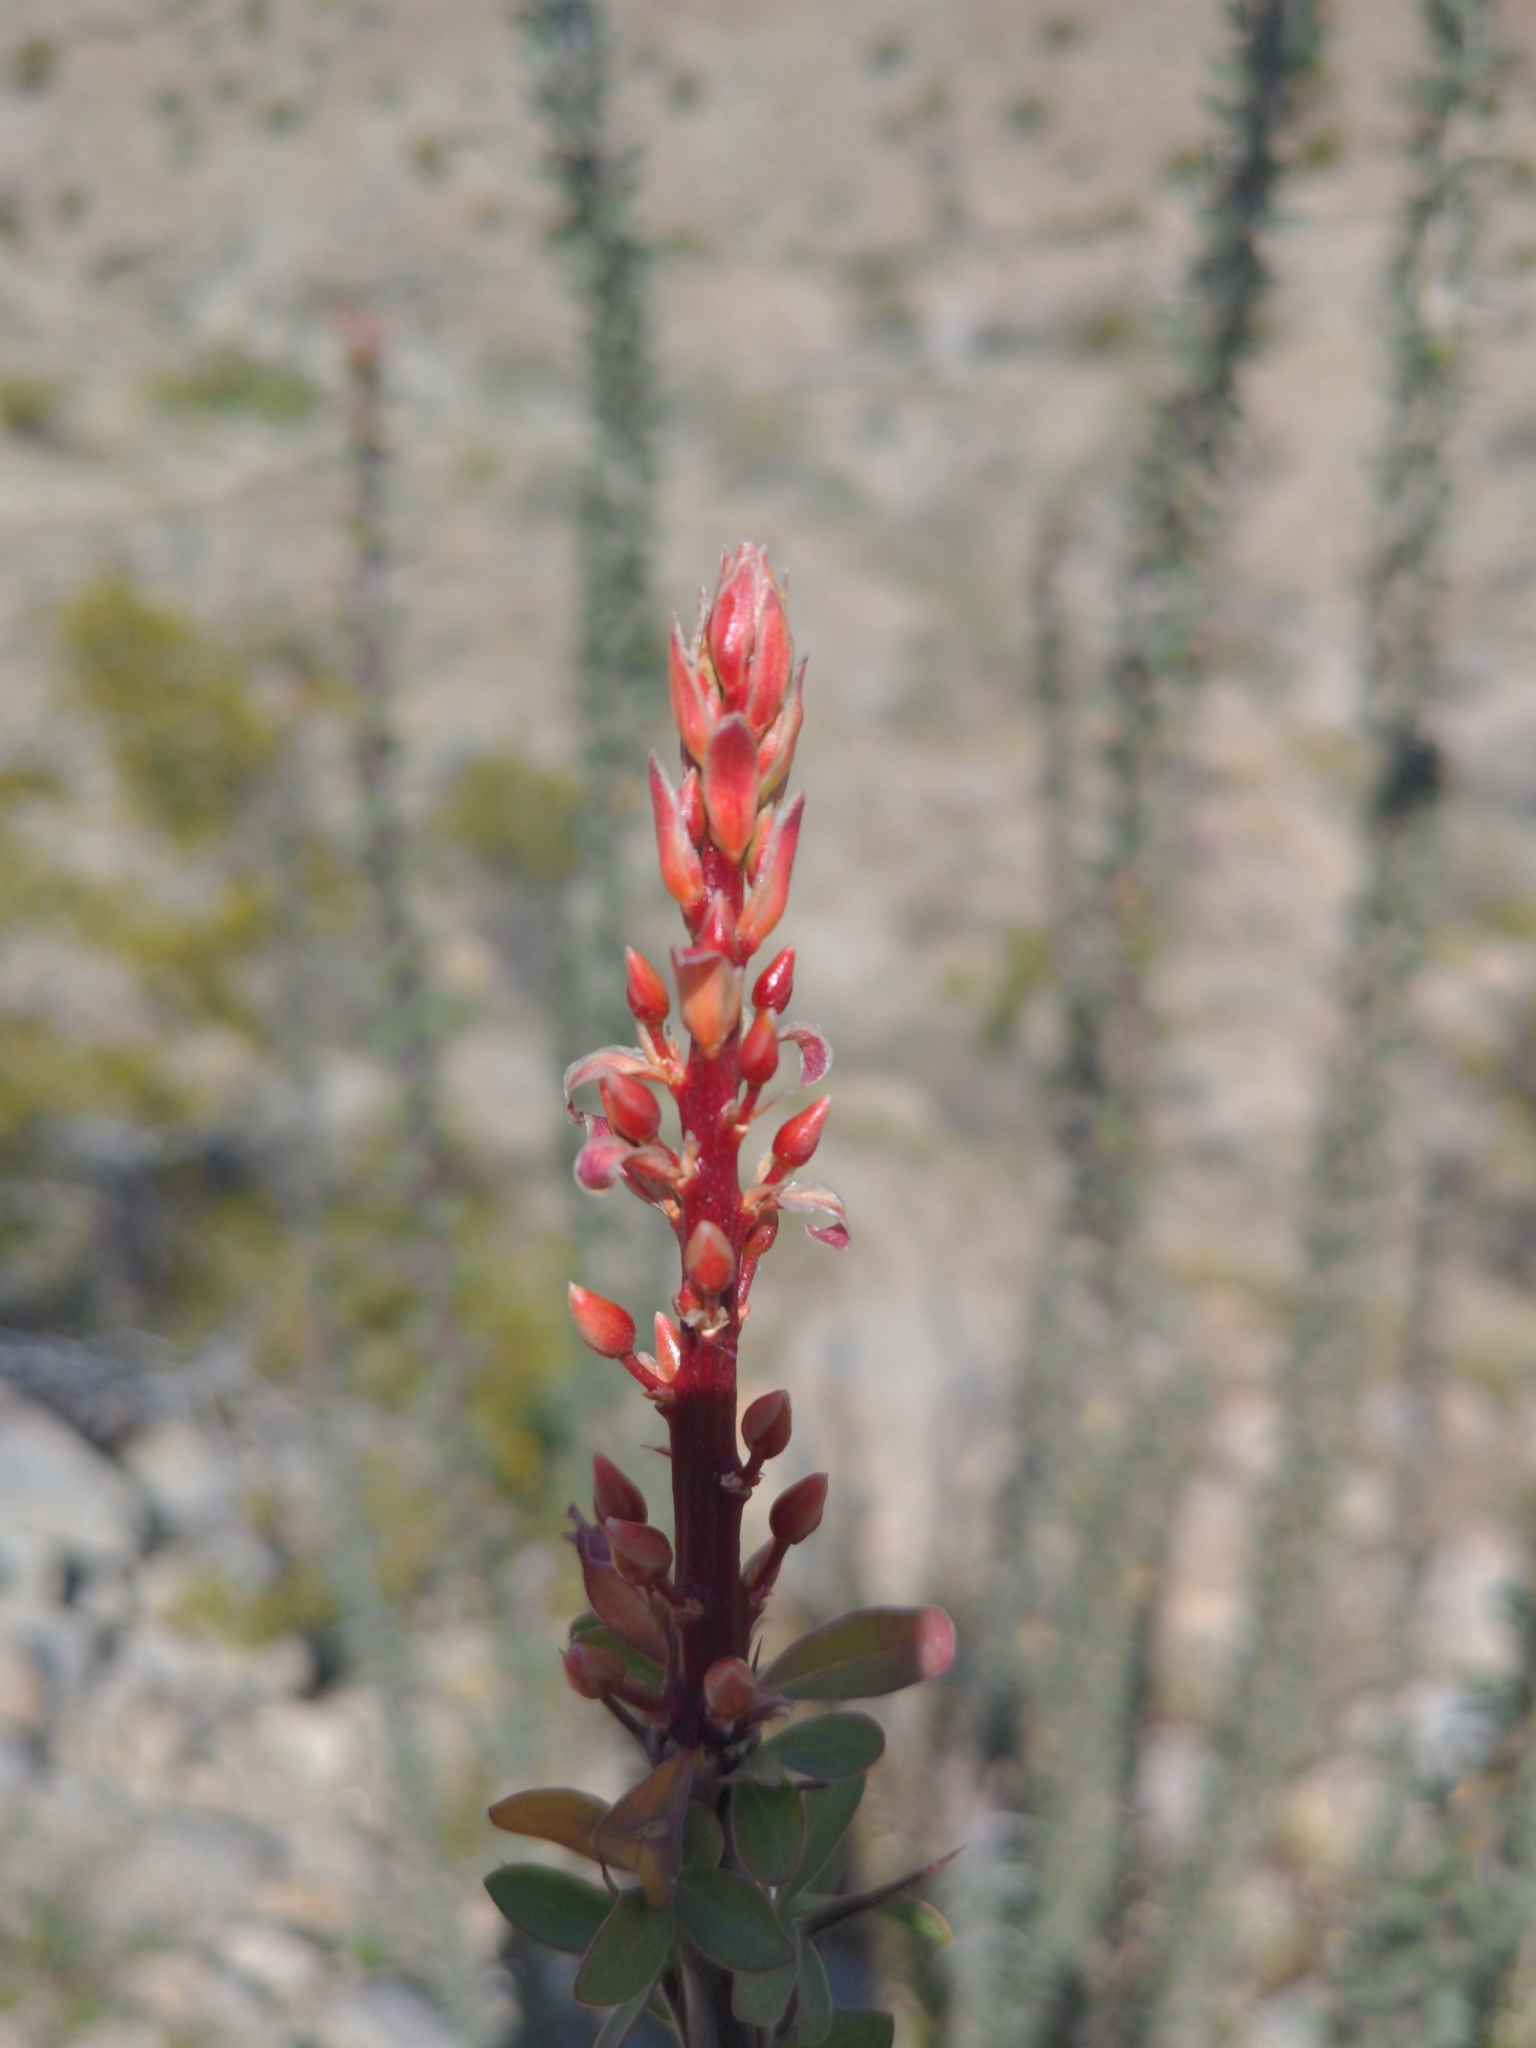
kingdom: Plantae
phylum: Tracheophyta
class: Magnoliopsida
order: Ericales
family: Fouquieriaceae
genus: Fouquieria
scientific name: Fouquieria splendens
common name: Vine-cactus
